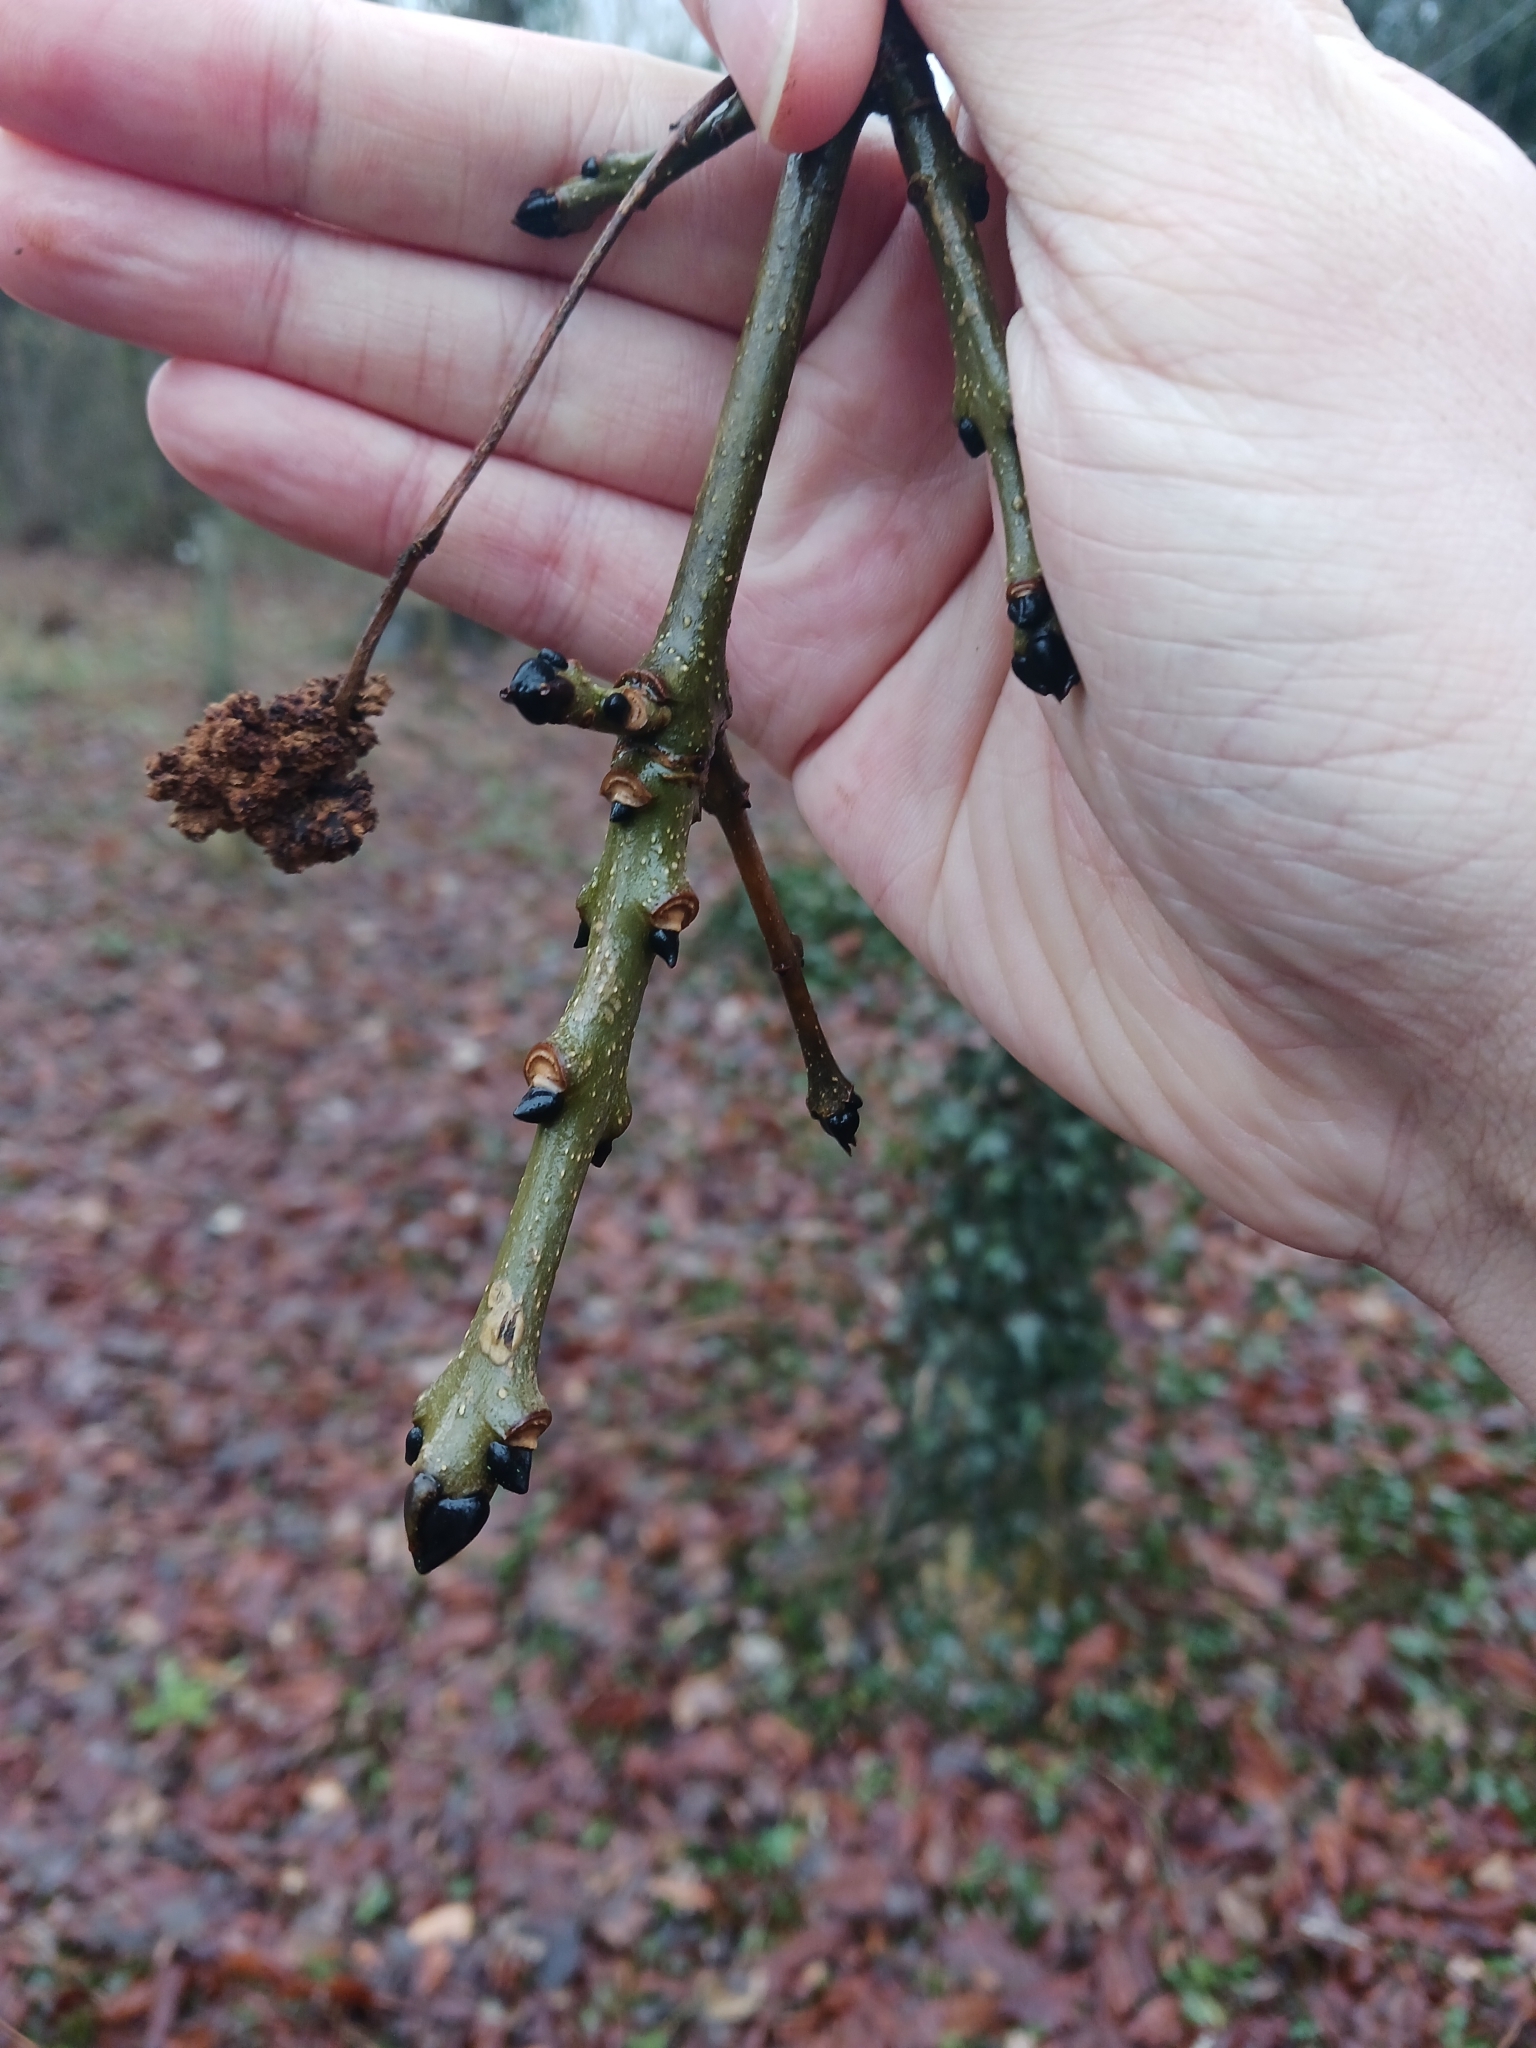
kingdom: Animalia
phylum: Arthropoda
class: Arachnida
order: Trombidiformes
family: Eriophyidae
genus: Aceria
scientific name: Aceria fraxinivora
